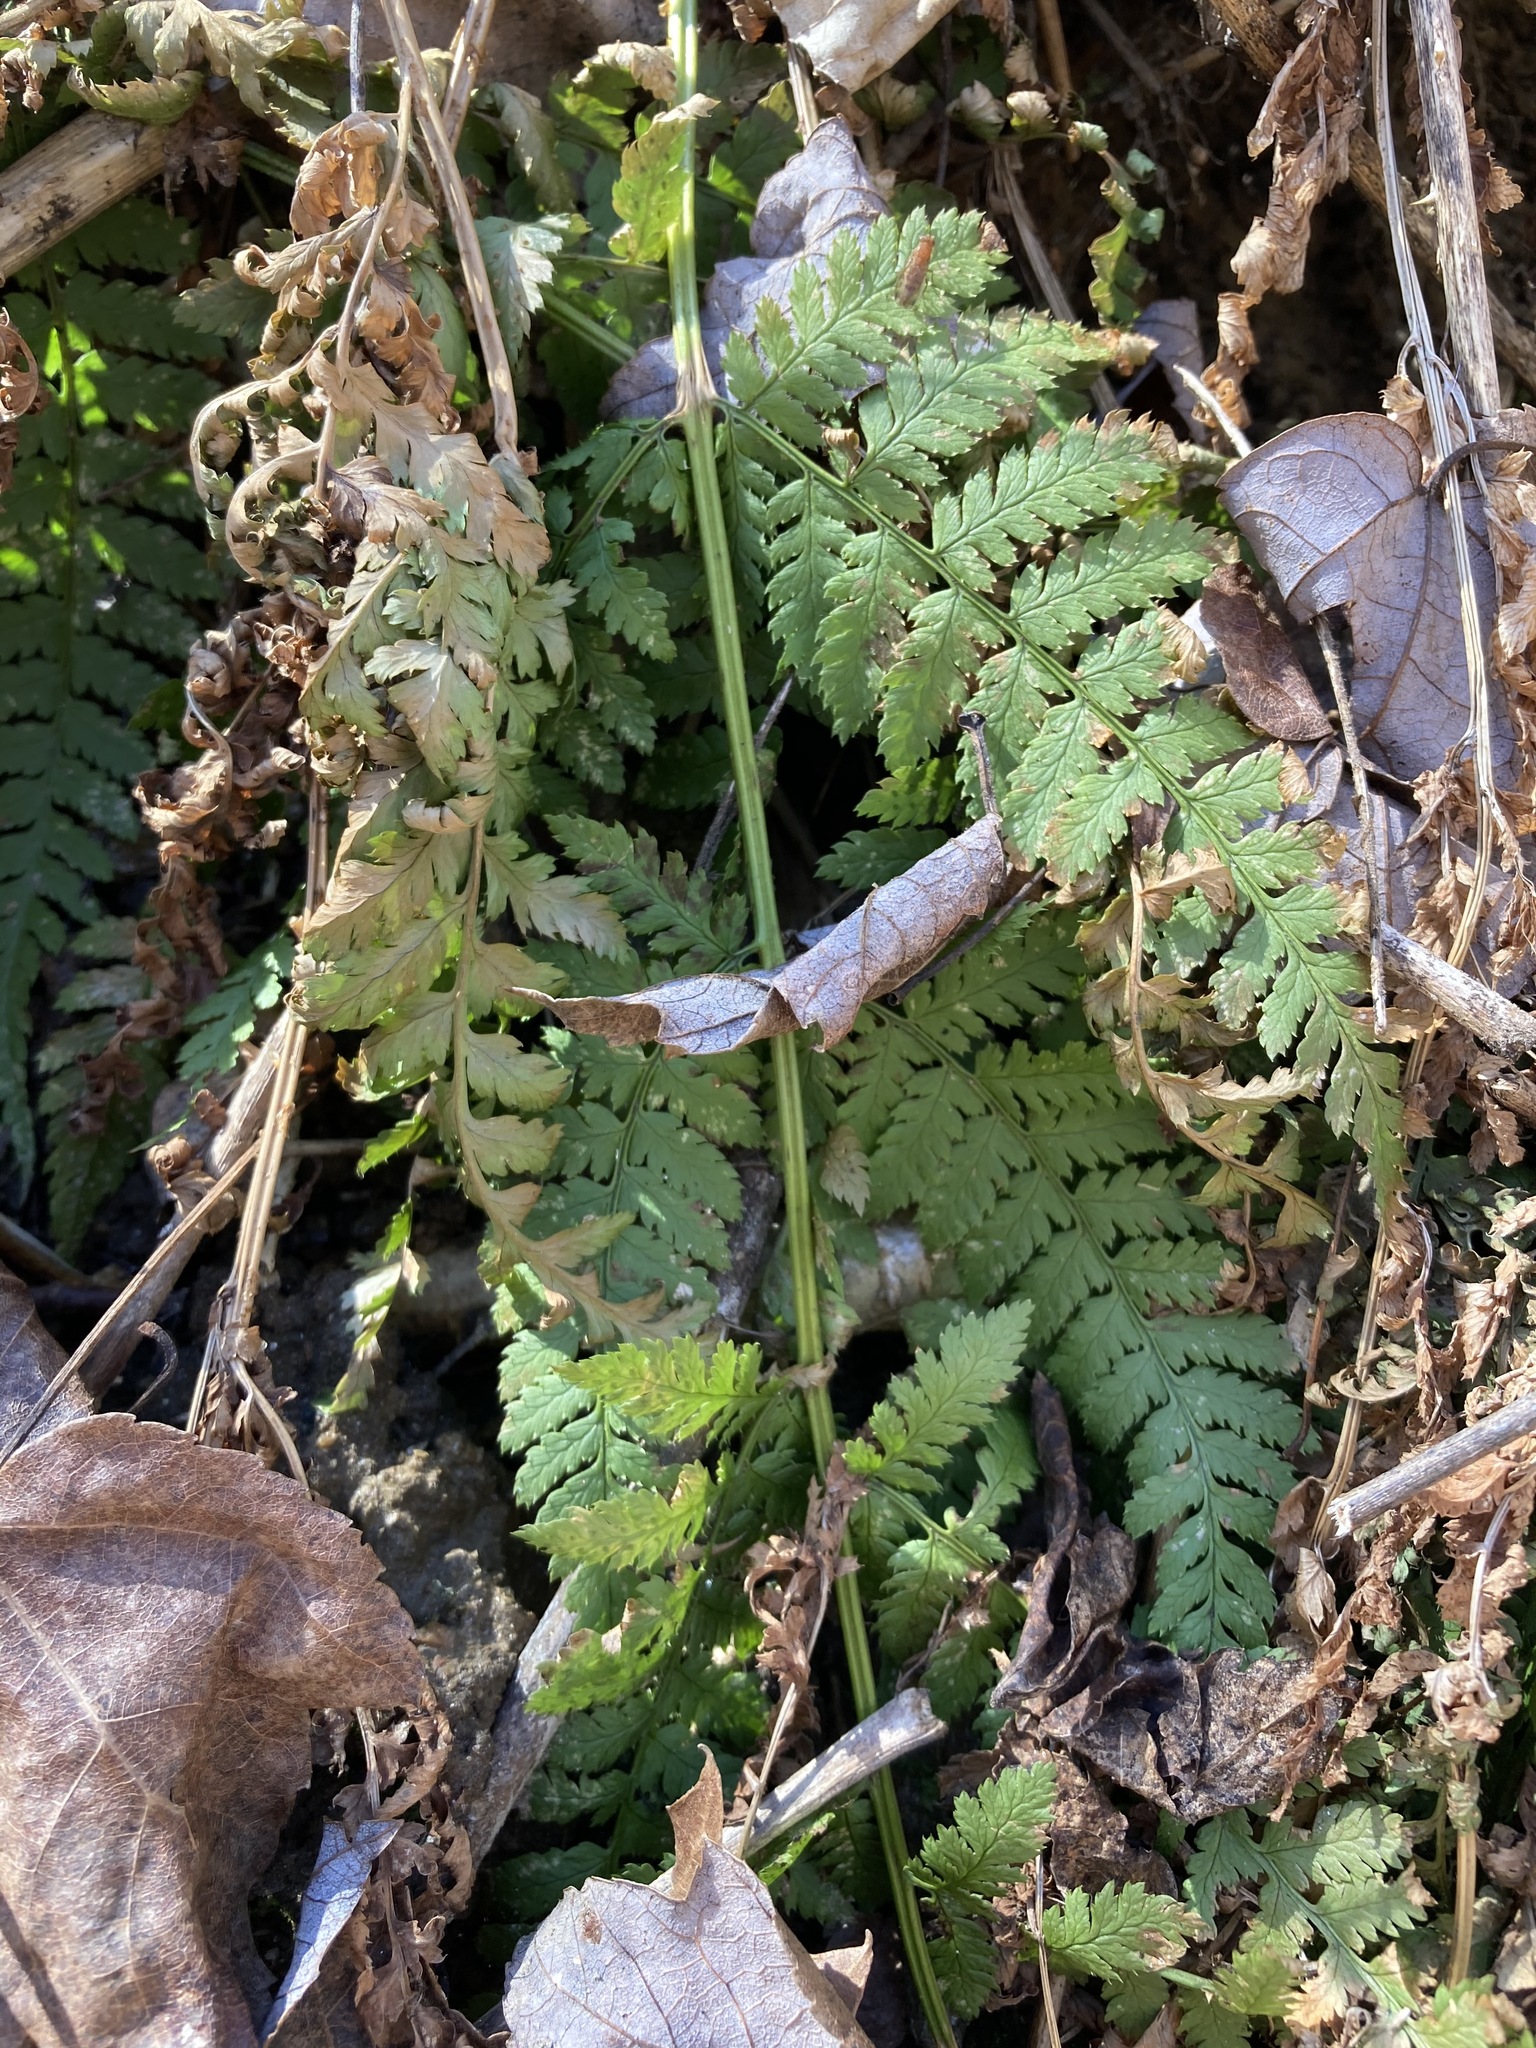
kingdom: Plantae
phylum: Tracheophyta
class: Polypodiopsida
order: Polypodiales
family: Dryopteridaceae
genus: Dryopteris
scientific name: Dryopteris intermedia
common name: Evergreen wood fern
